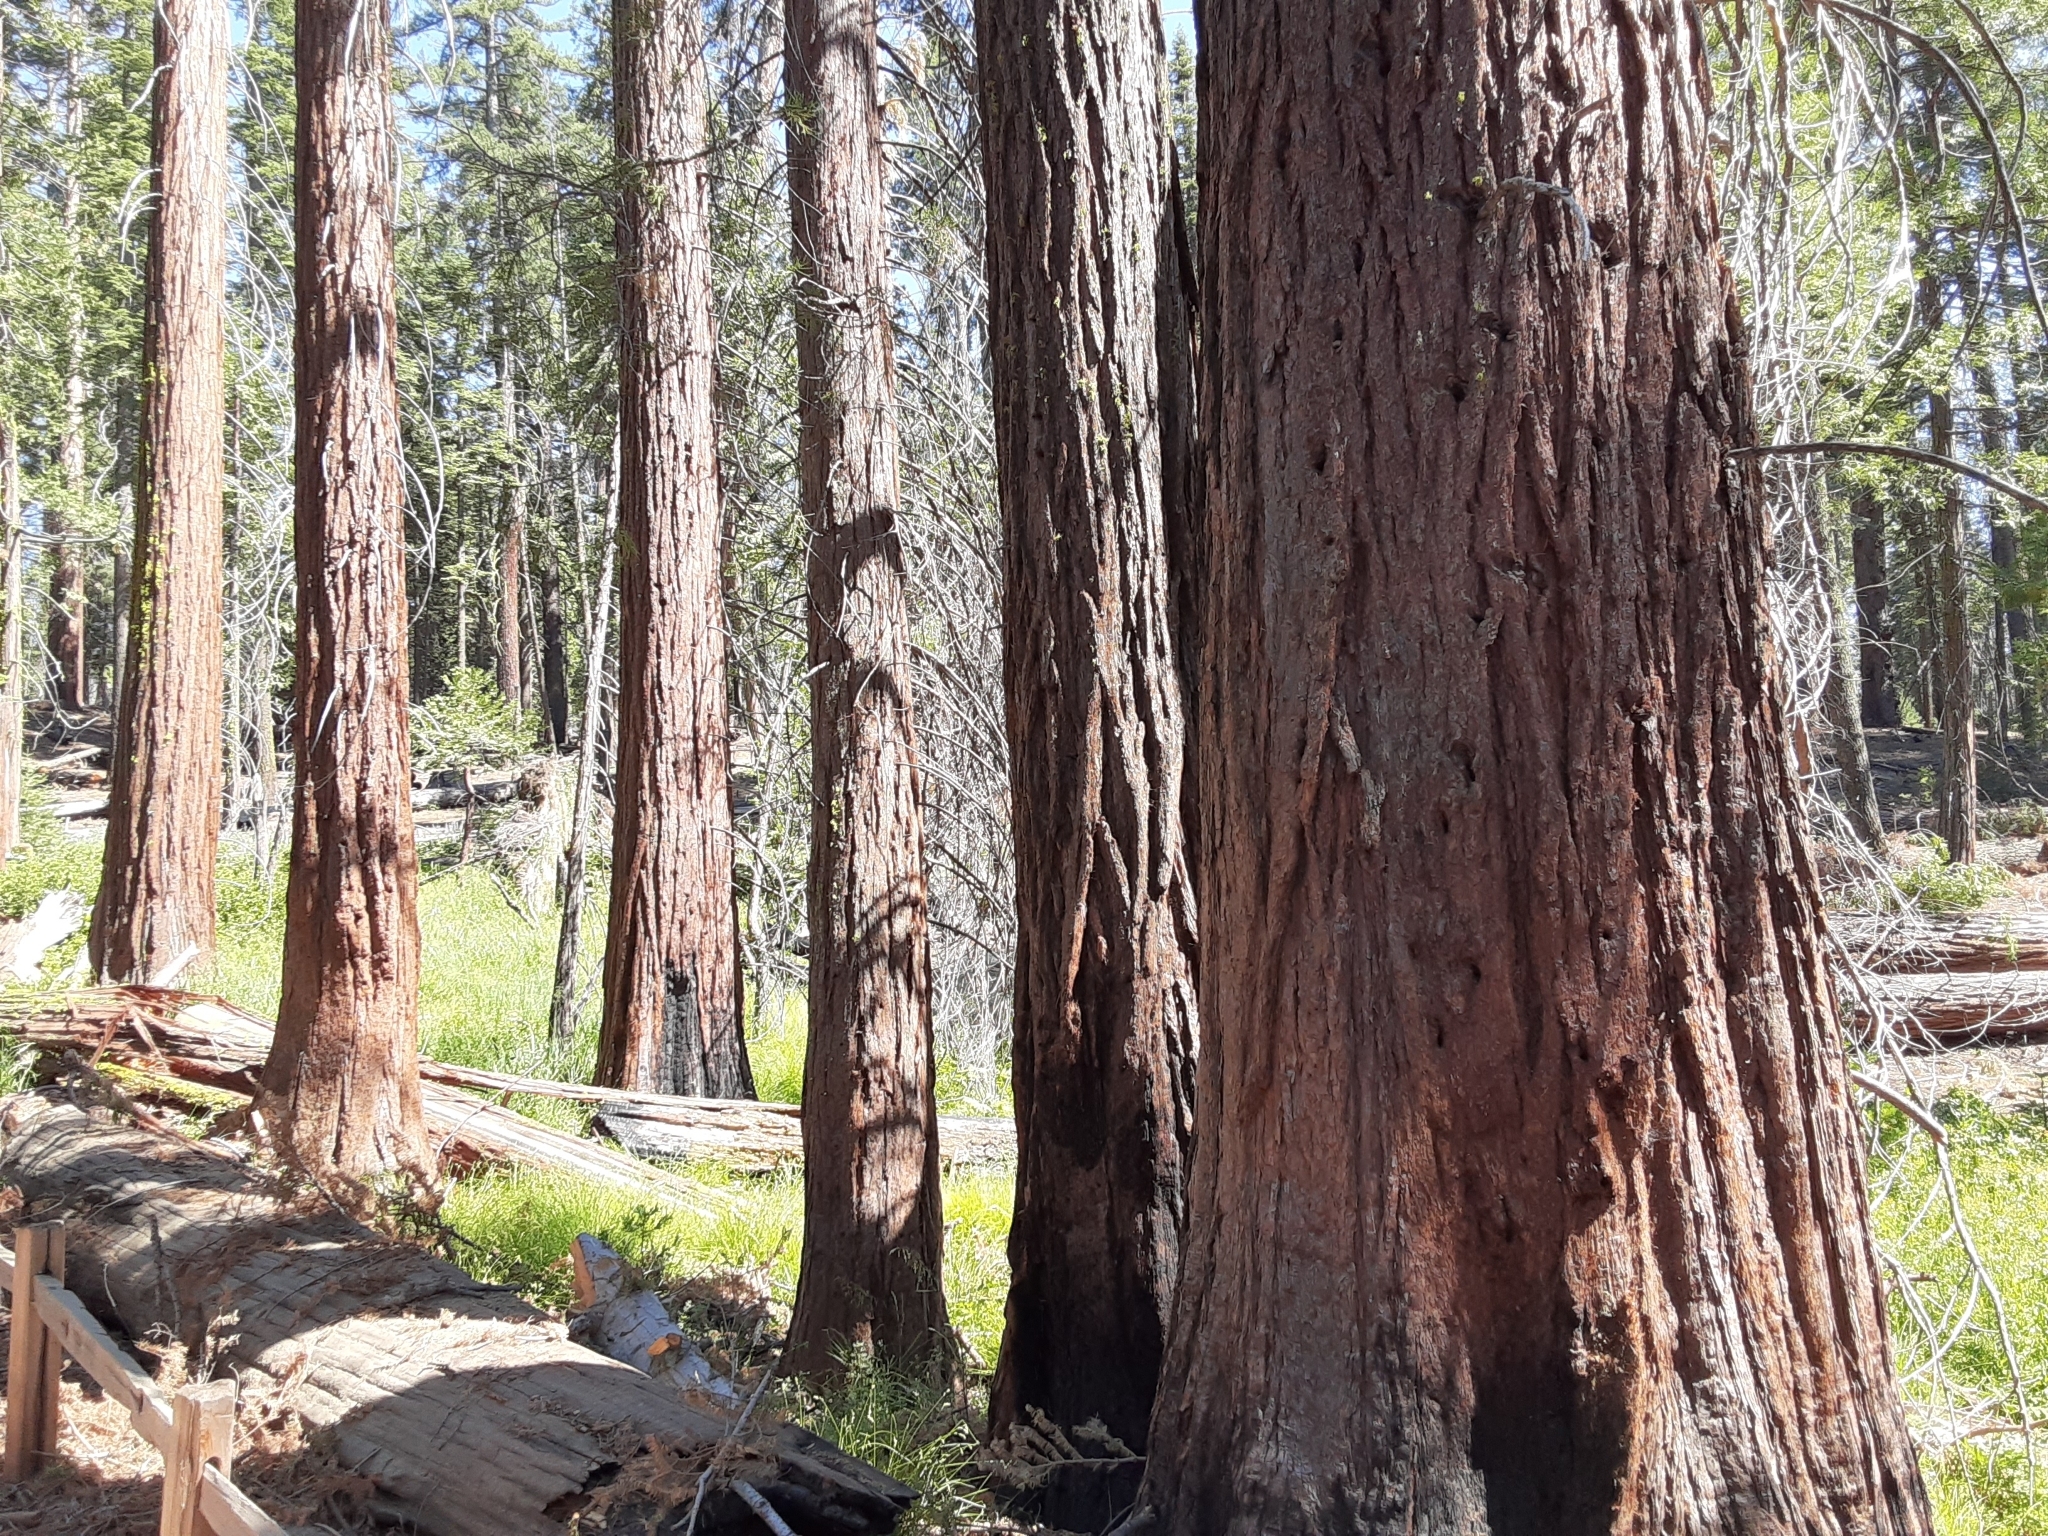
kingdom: Plantae
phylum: Tracheophyta
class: Pinopsida
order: Pinales
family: Cupressaceae
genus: Sequoiadendron
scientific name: Sequoiadendron giganteum
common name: Wellingtonia
